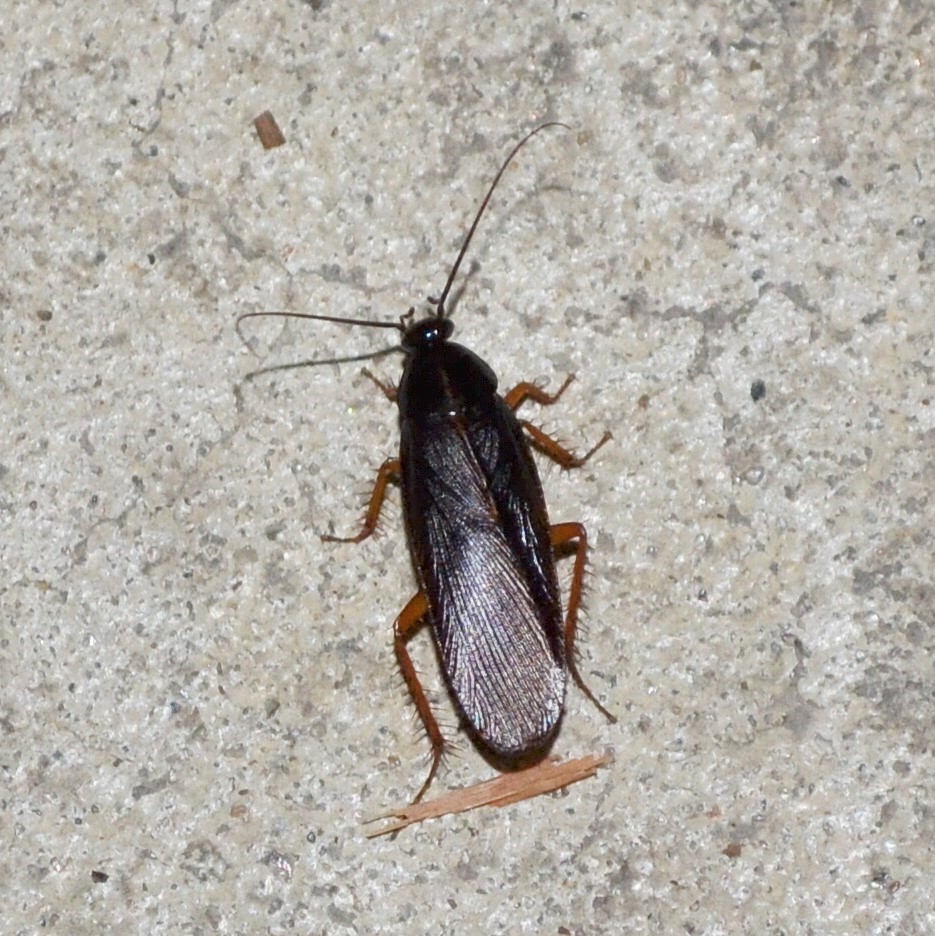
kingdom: Animalia
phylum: Arthropoda
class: Insecta
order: Blattodea
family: Ectobiidae
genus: Ischnoptera
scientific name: Ischnoptera deropeltiformis
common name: Dark wood cockroach
